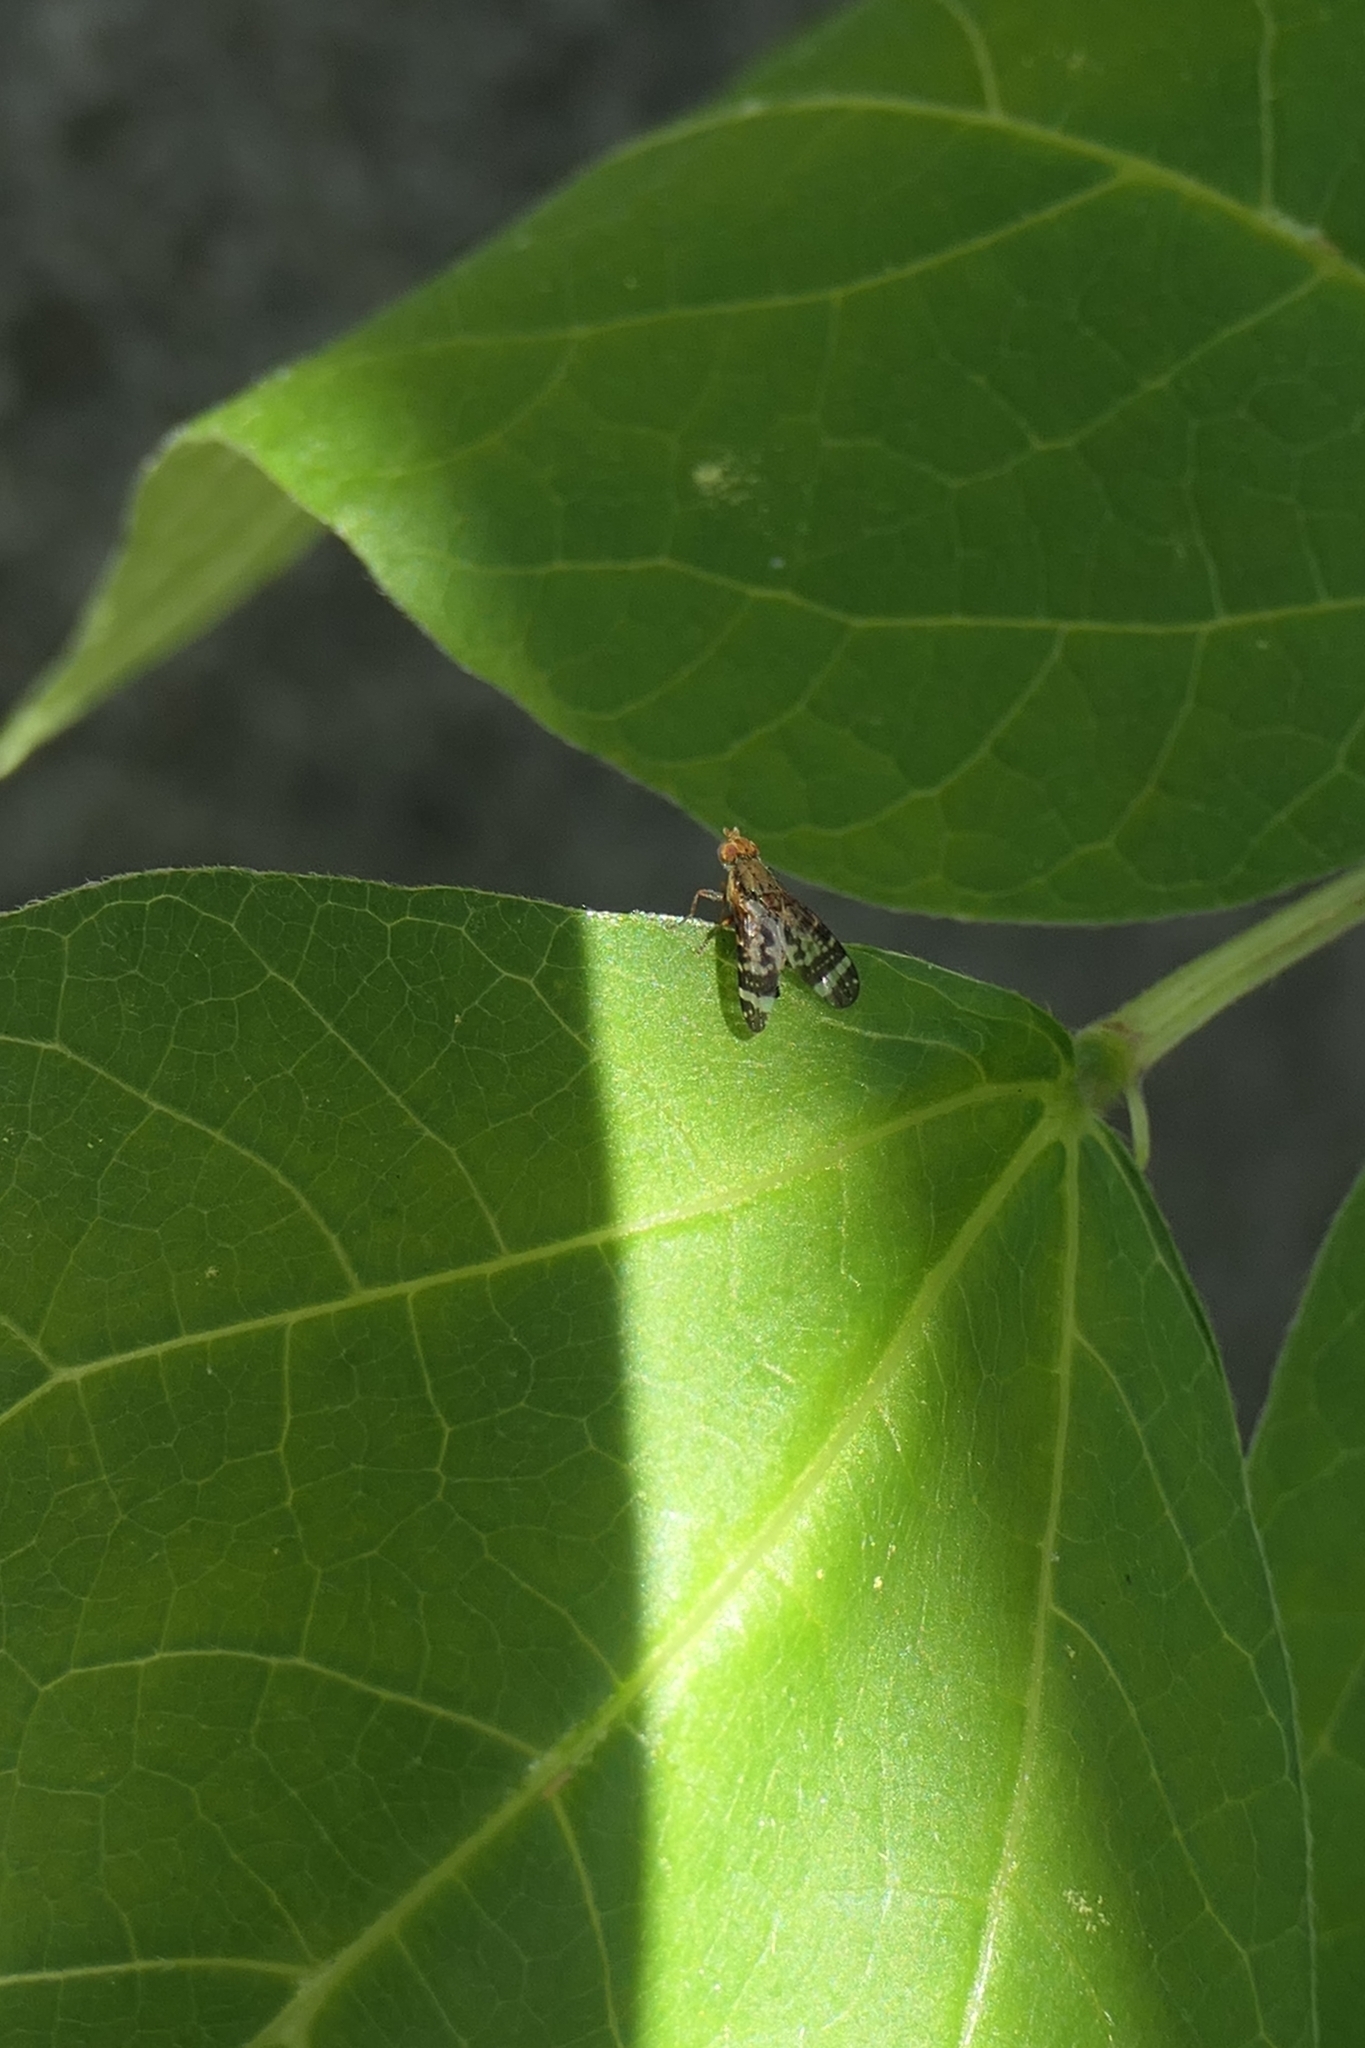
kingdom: Animalia
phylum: Arthropoda
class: Insecta
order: Diptera
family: Tephritidae
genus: Sphenella
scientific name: Sphenella
